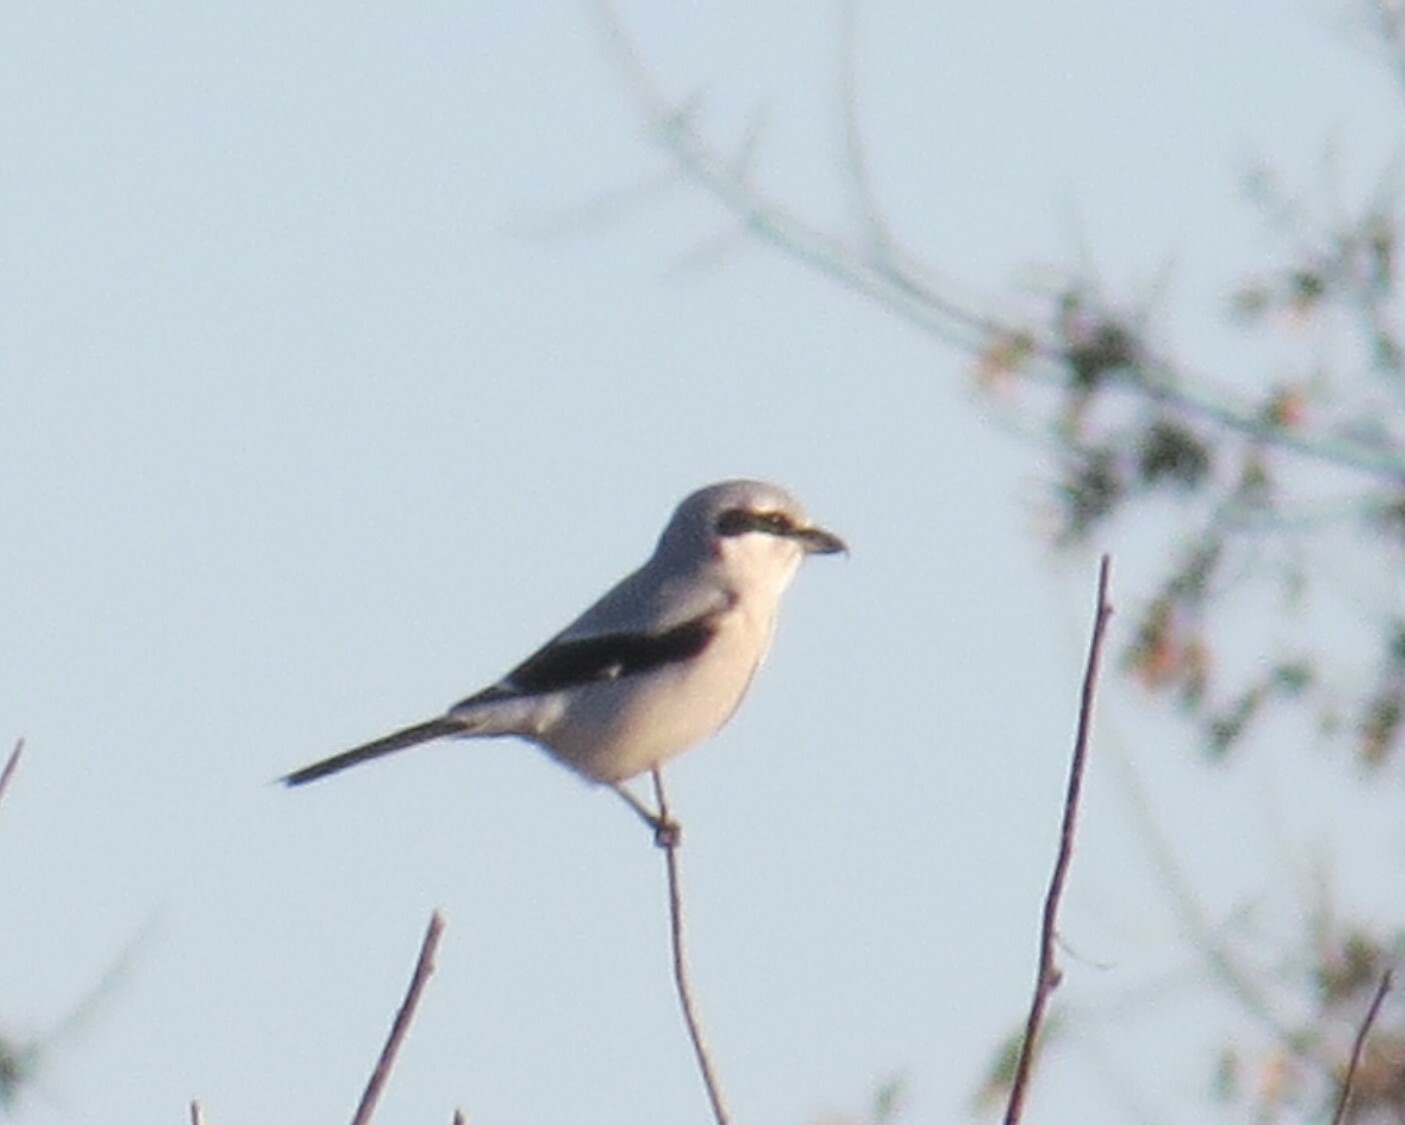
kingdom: Animalia
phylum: Chordata
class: Aves
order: Passeriformes
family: Laniidae
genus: Lanius
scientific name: Lanius borealis
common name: Northern shrike
